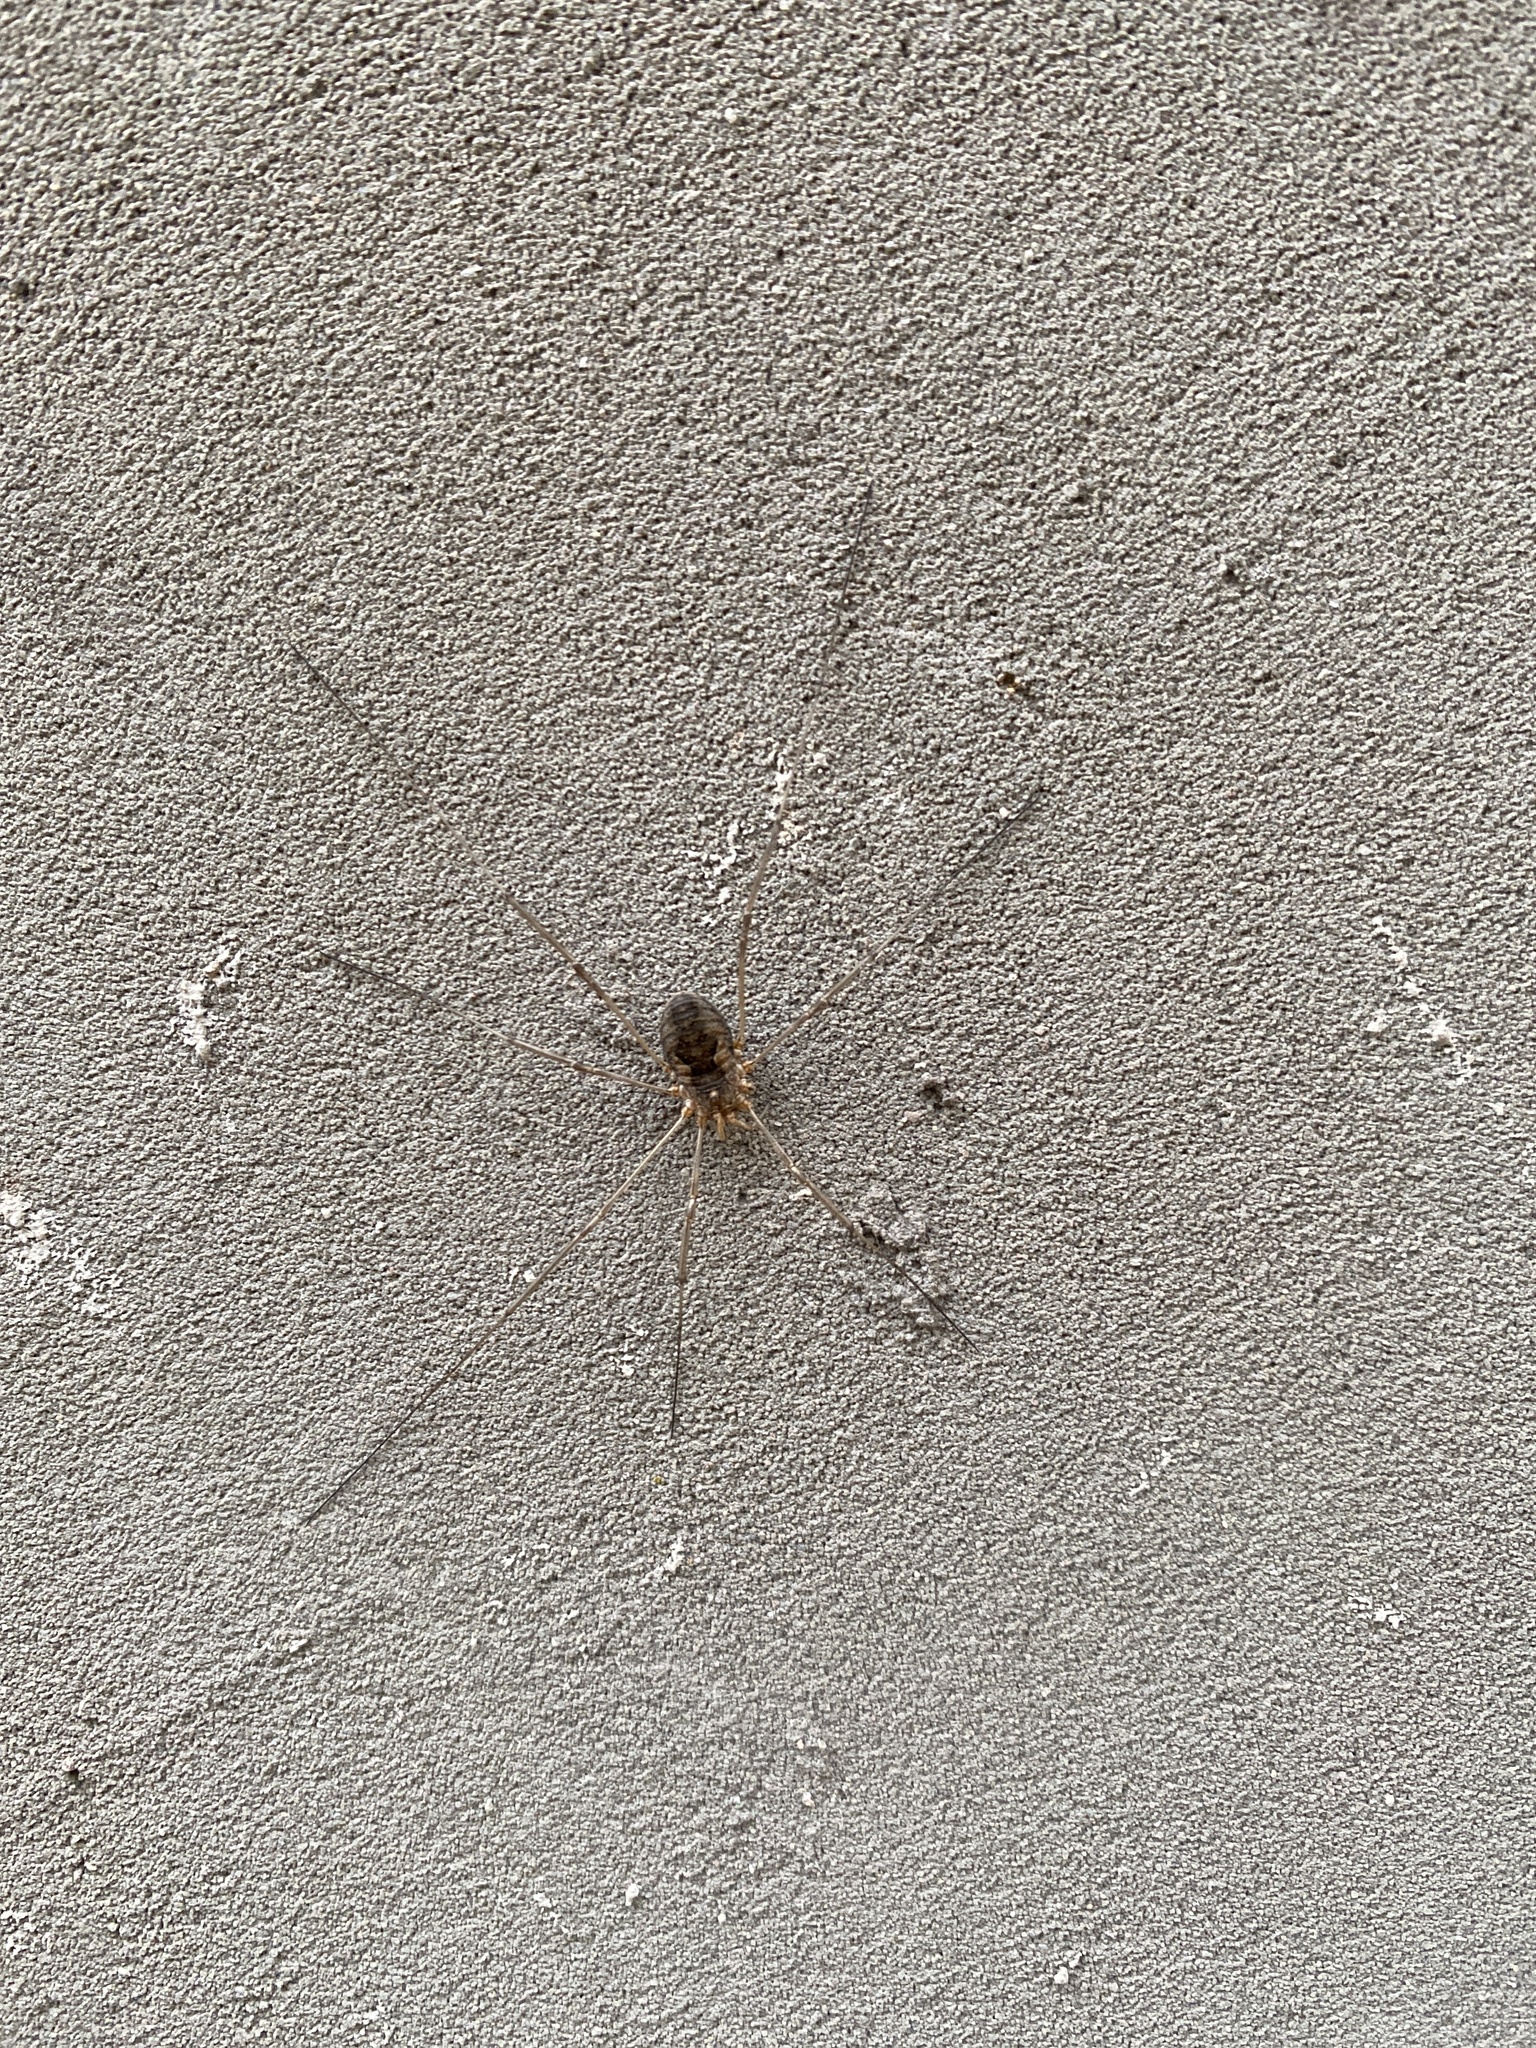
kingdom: Animalia
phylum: Arthropoda
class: Arachnida
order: Opiliones
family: Phalangiidae
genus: Phalangium
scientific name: Phalangium opilio
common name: Daddy longleg
